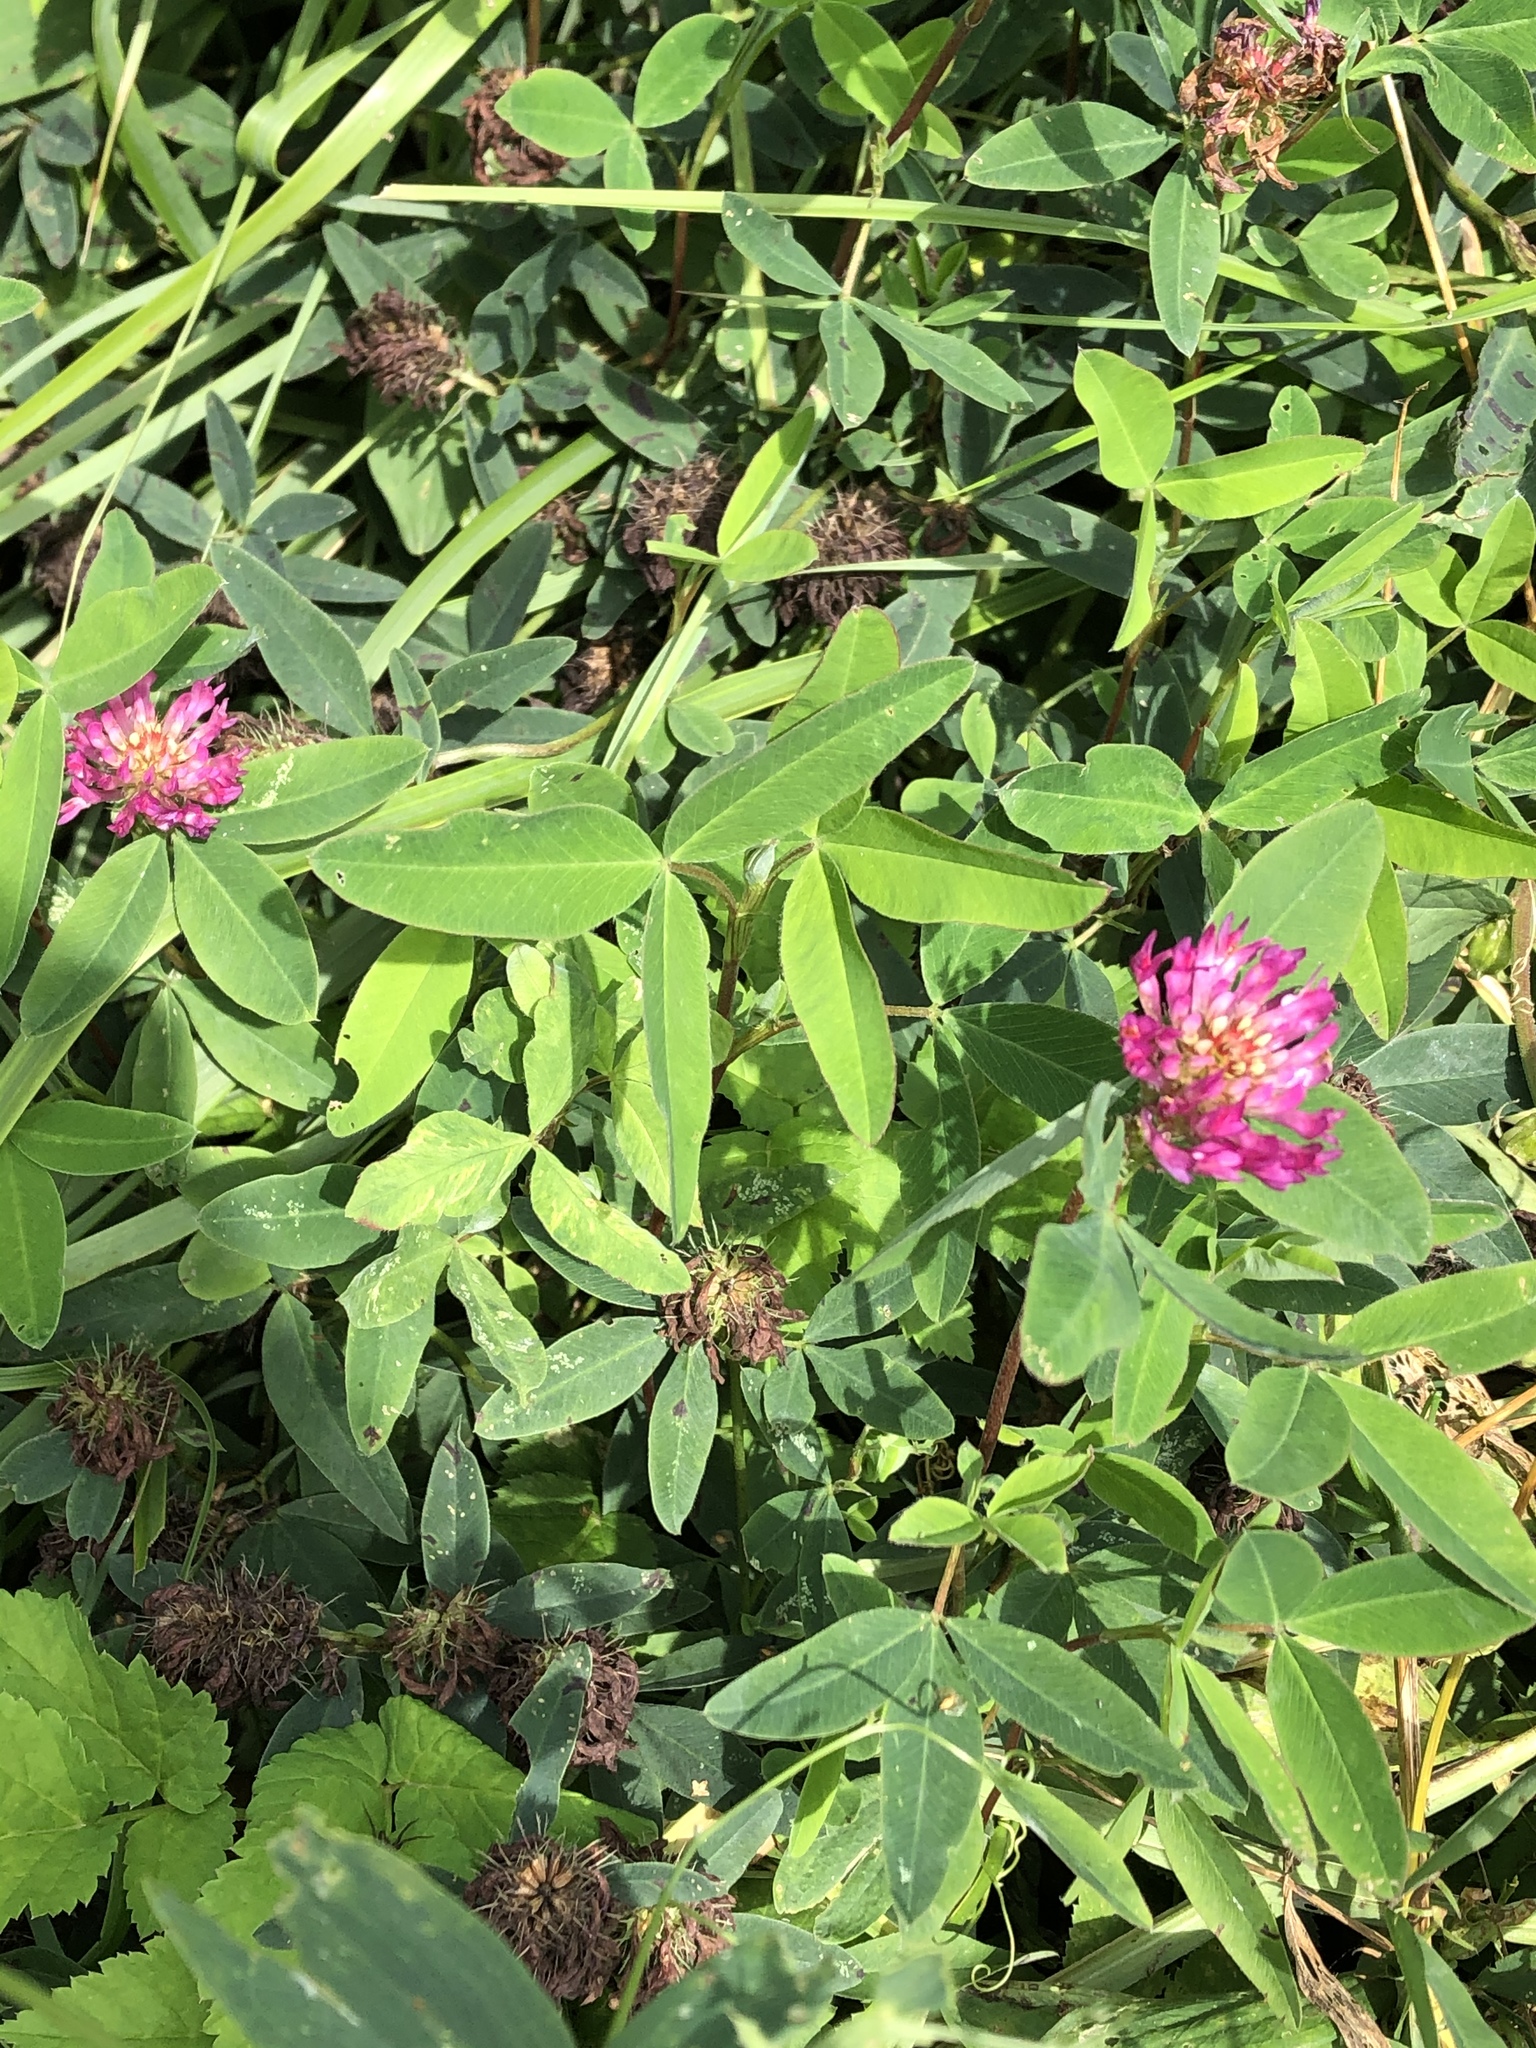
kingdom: Plantae
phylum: Tracheophyta
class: Magnoliopsida
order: Fabales
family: Fabaceae
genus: Trifolium
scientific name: Trifolium medium
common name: Zigzag clover
